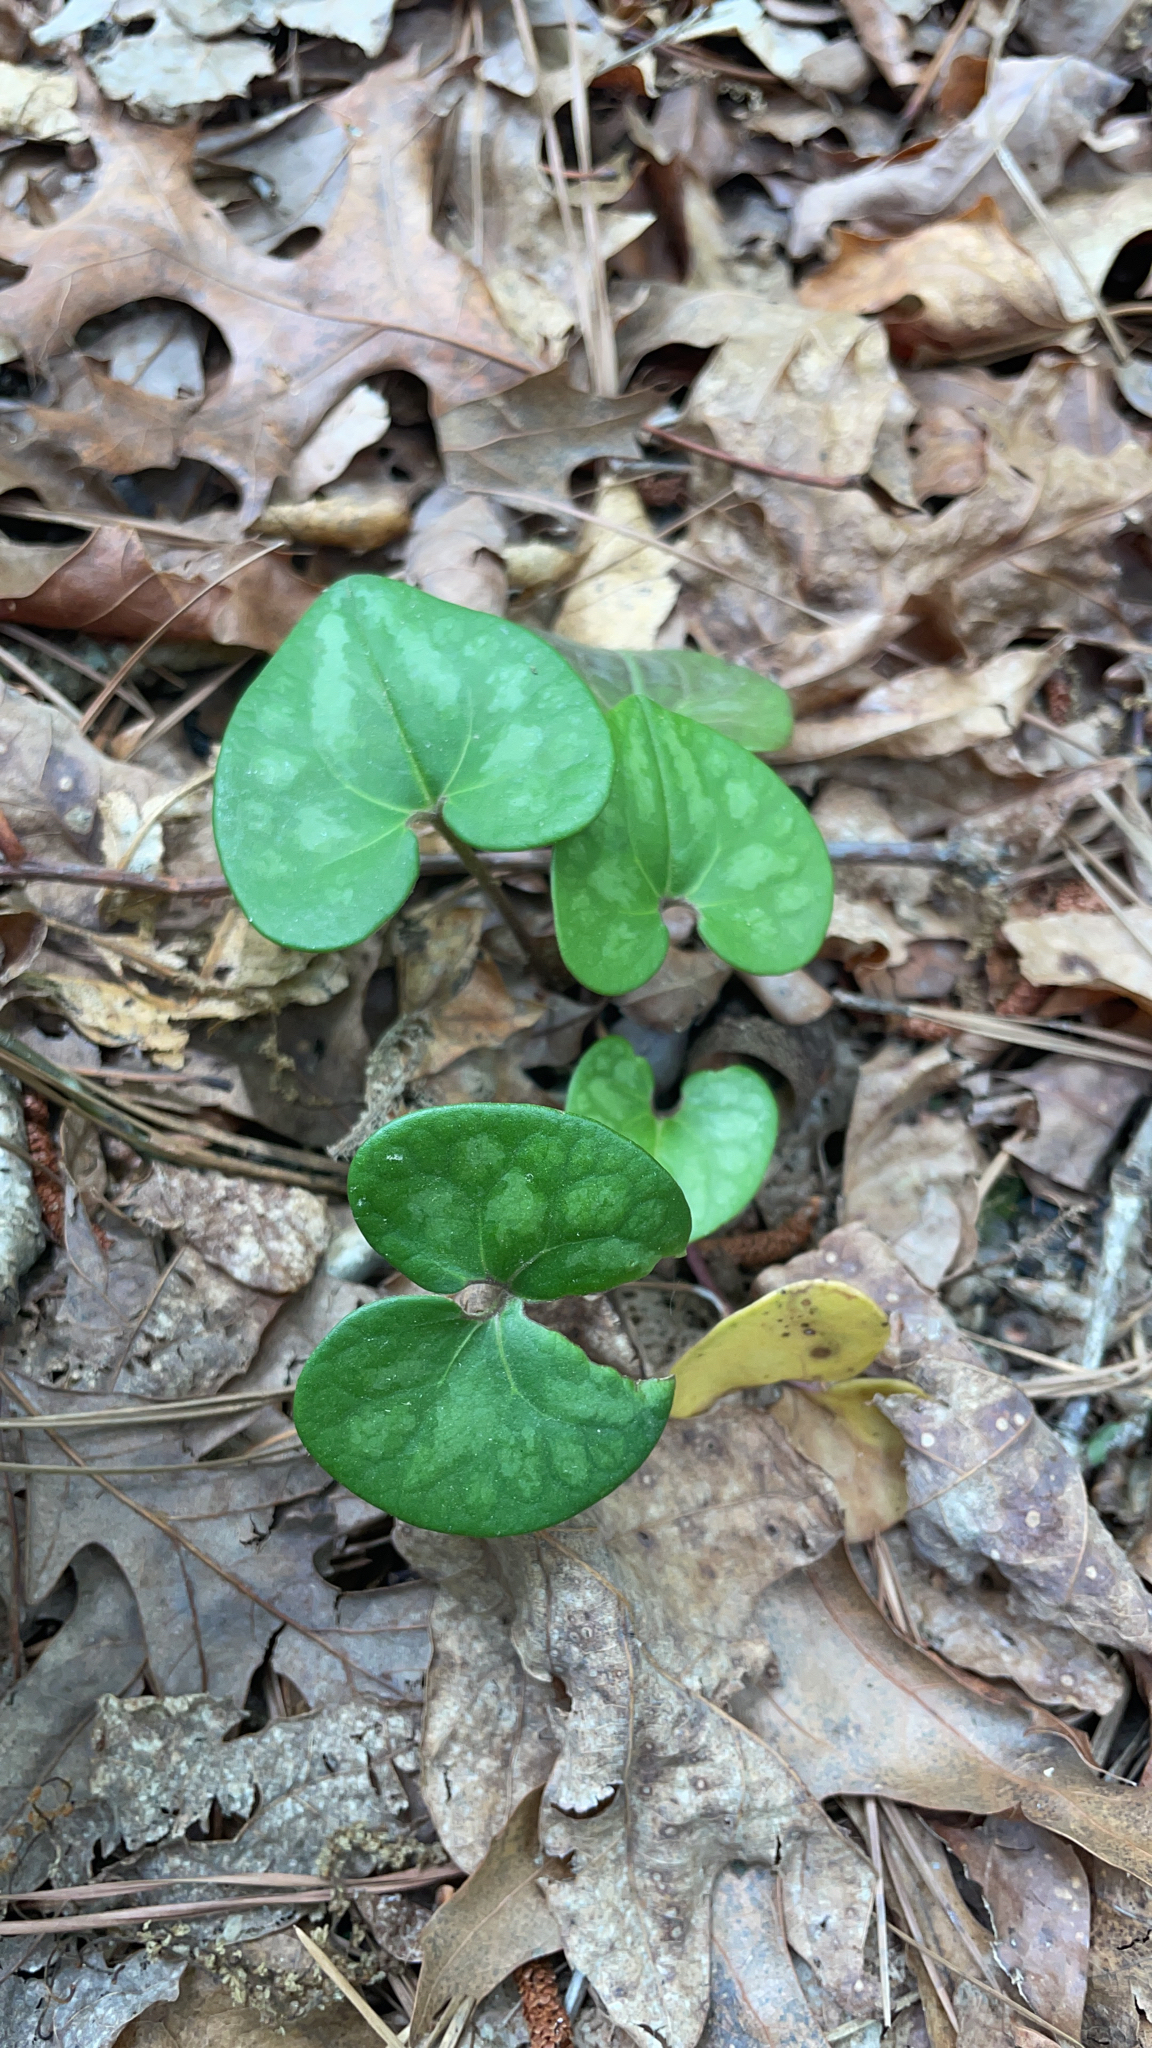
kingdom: Plantae
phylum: Tracheophyta
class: Magnoliopsida
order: Piperales
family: Aristolochiaceae
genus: Hexastylis
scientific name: Hexastylis arifolia
